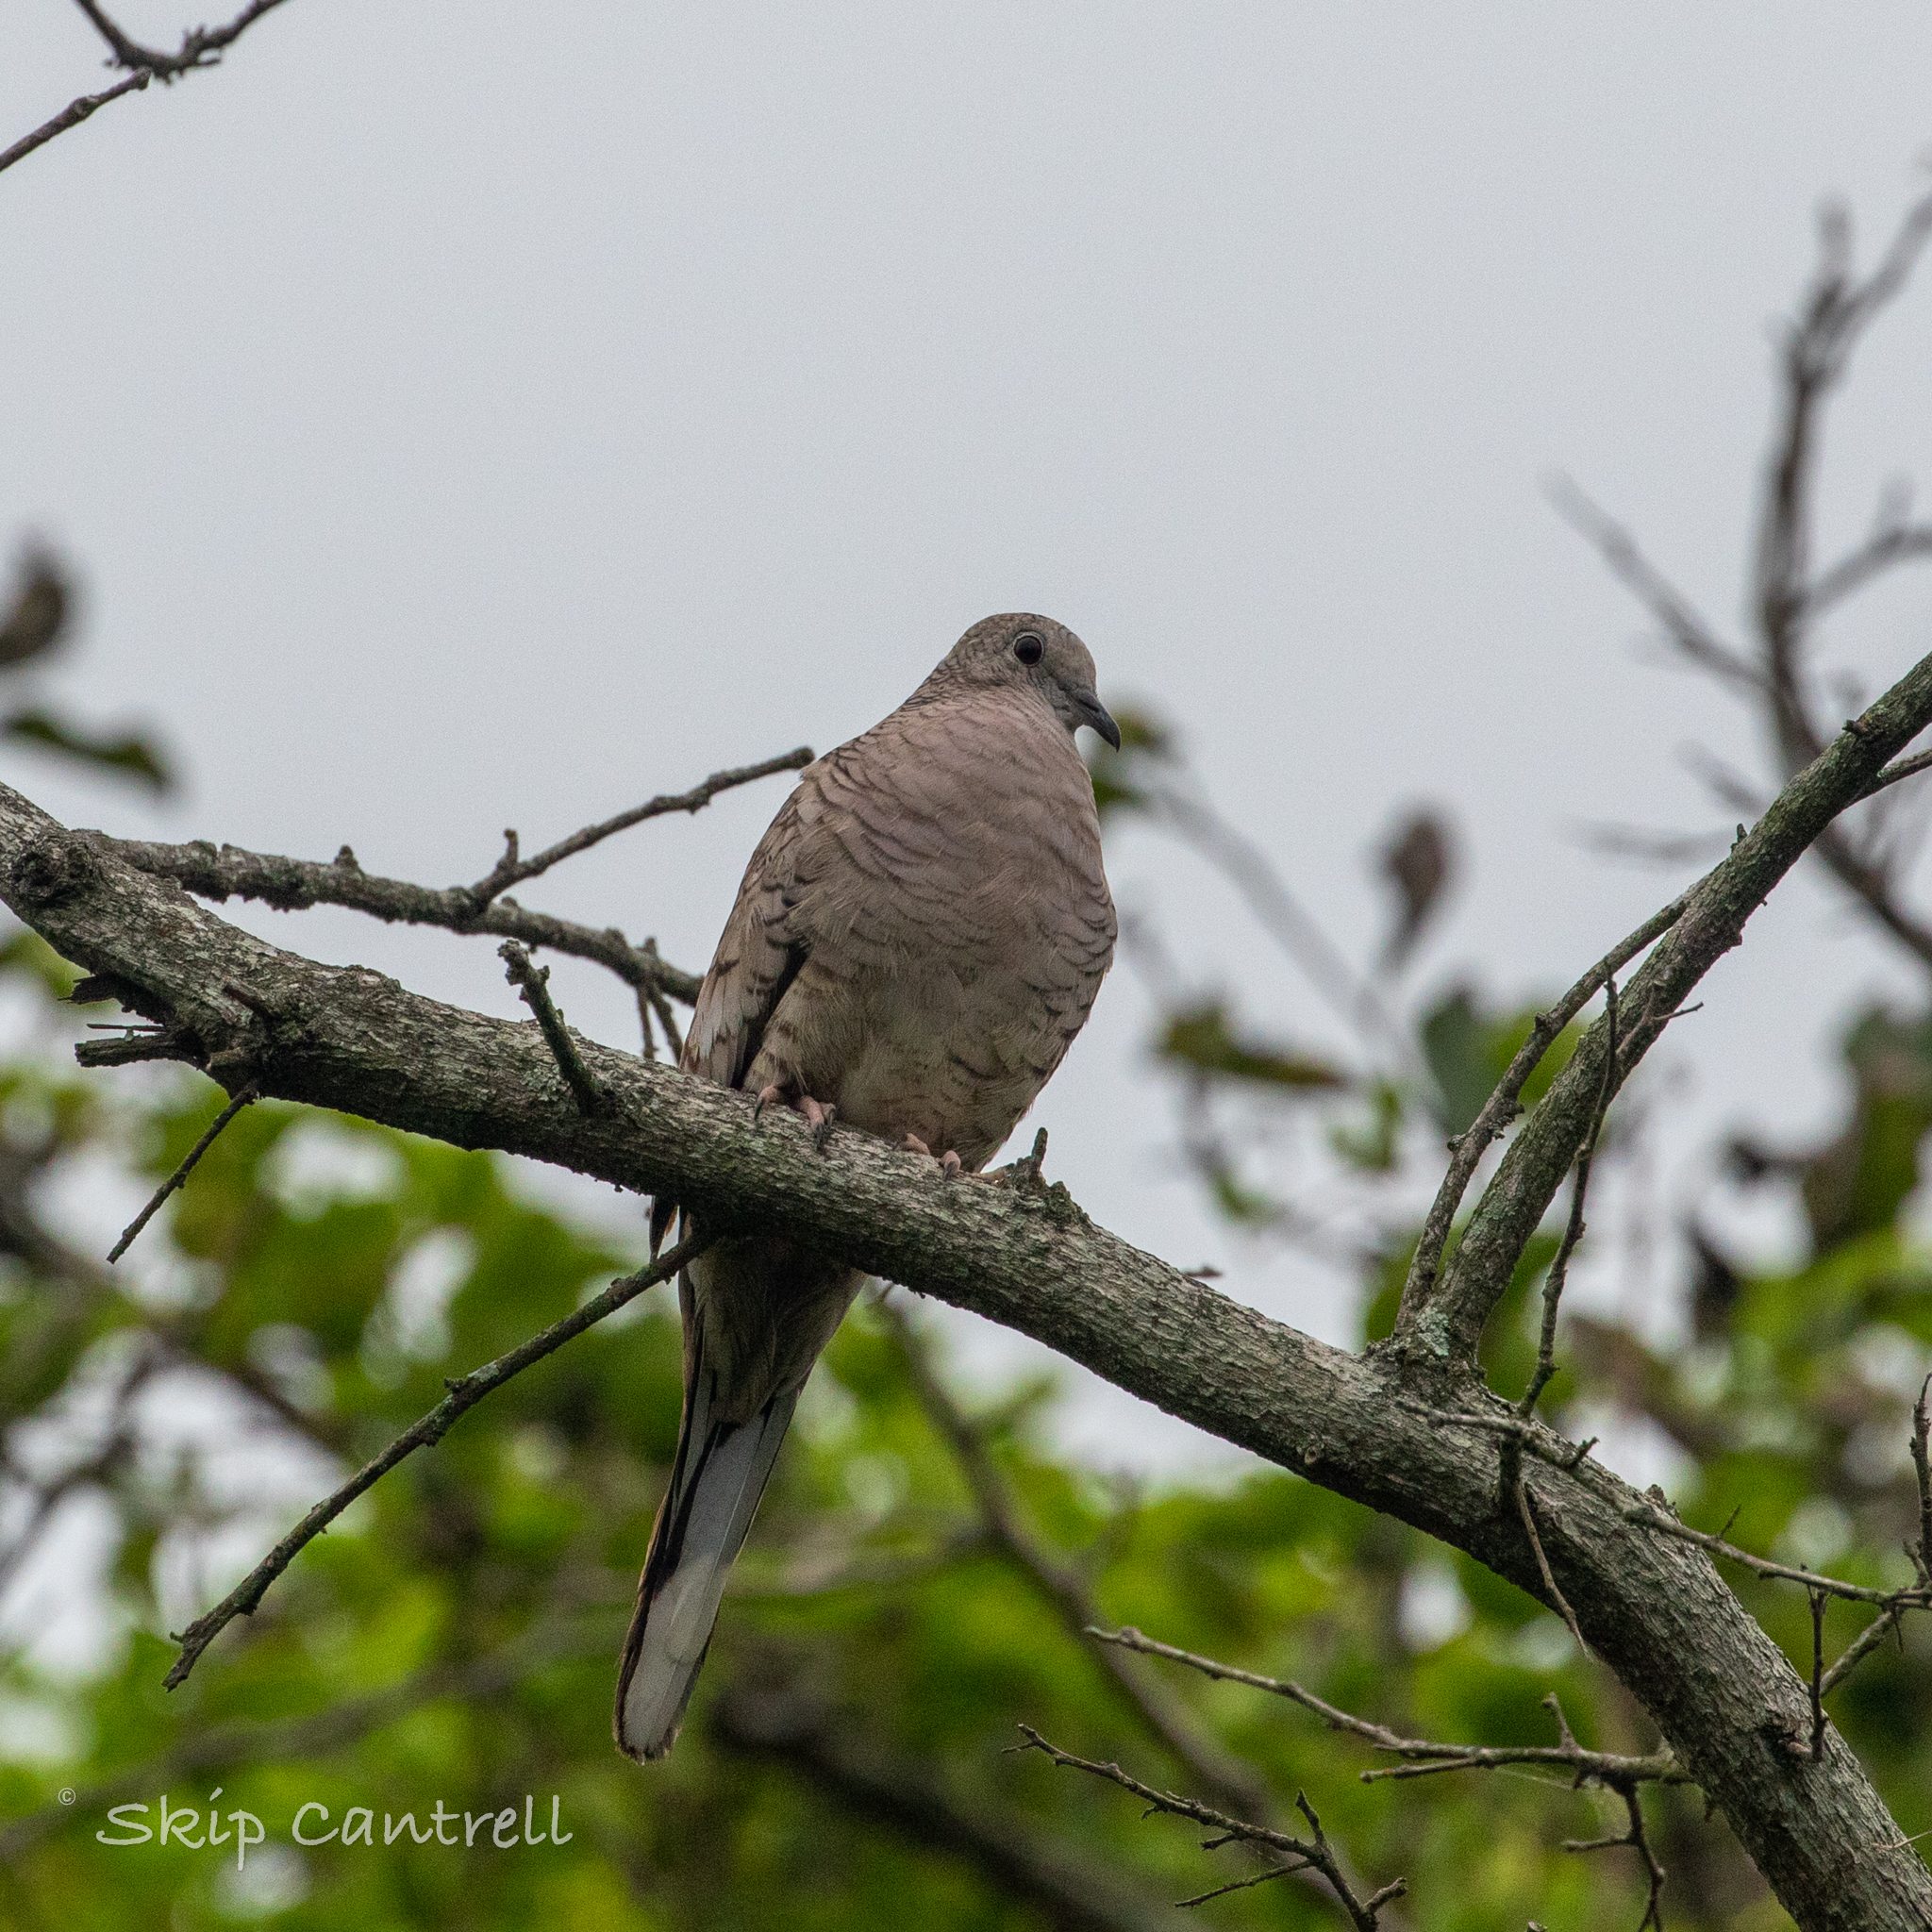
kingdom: Animalia
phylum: Chordata
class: Aves
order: Columbiformes
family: Columbidae
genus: Columbina
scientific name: Columbina inca
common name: Inca dove
